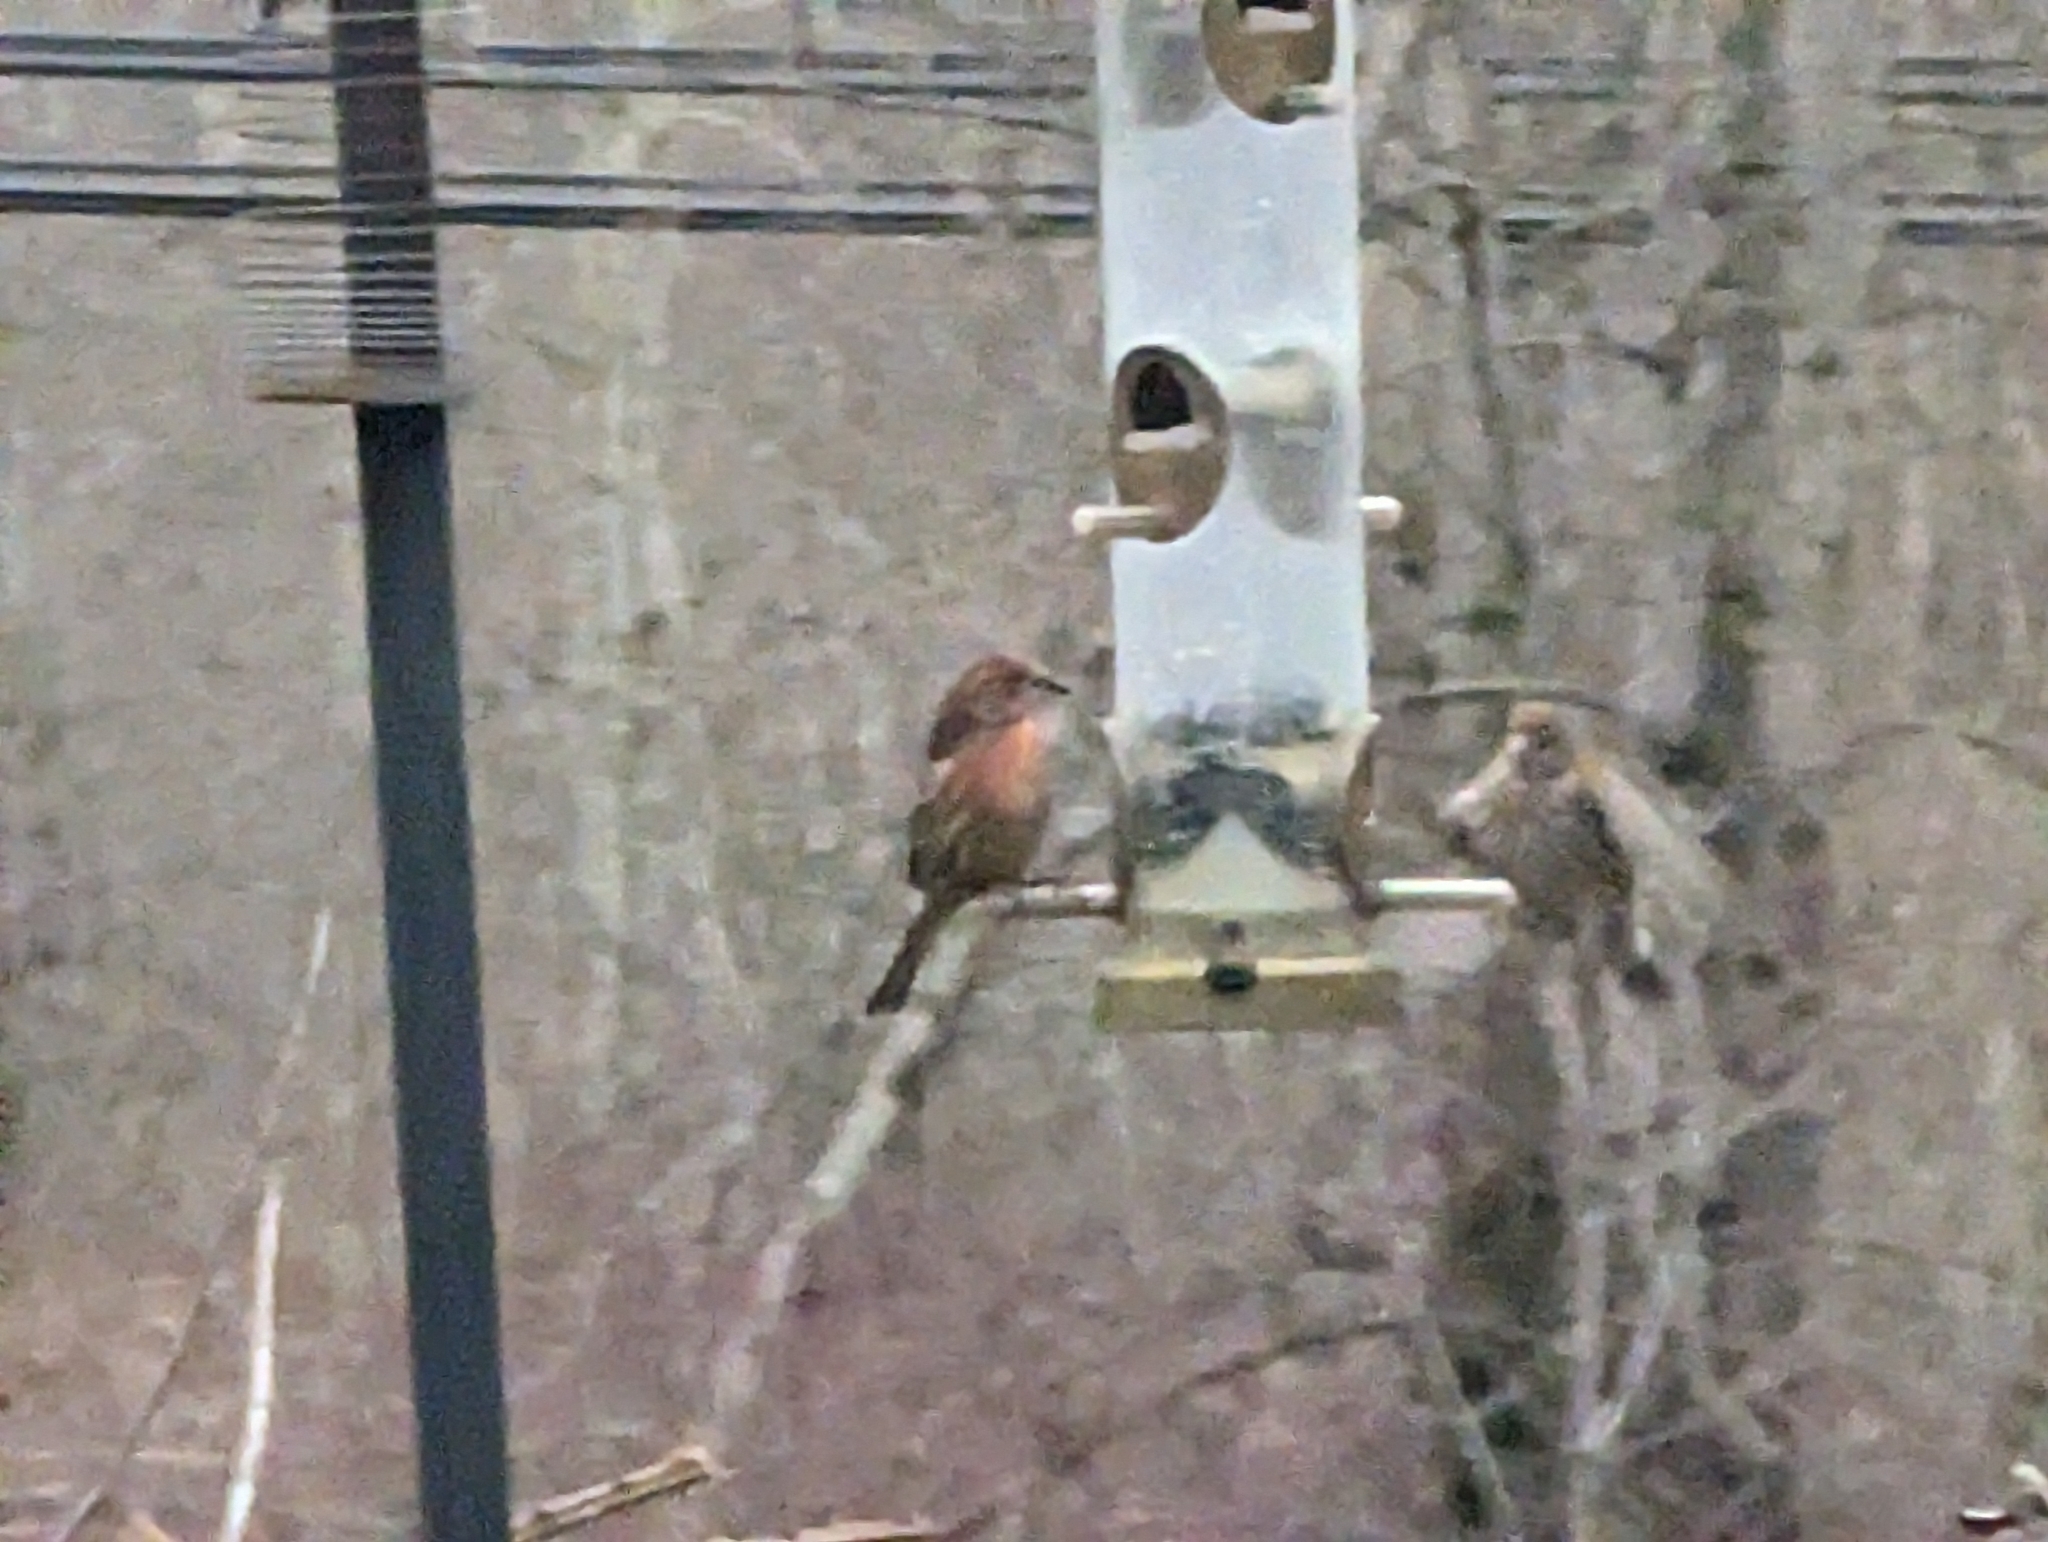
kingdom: Animalia
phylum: Chordata
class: Aves
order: Passeriformes
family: Fringillidae
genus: Haemorhous
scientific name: Haemorhous mexicanus
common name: House finch
